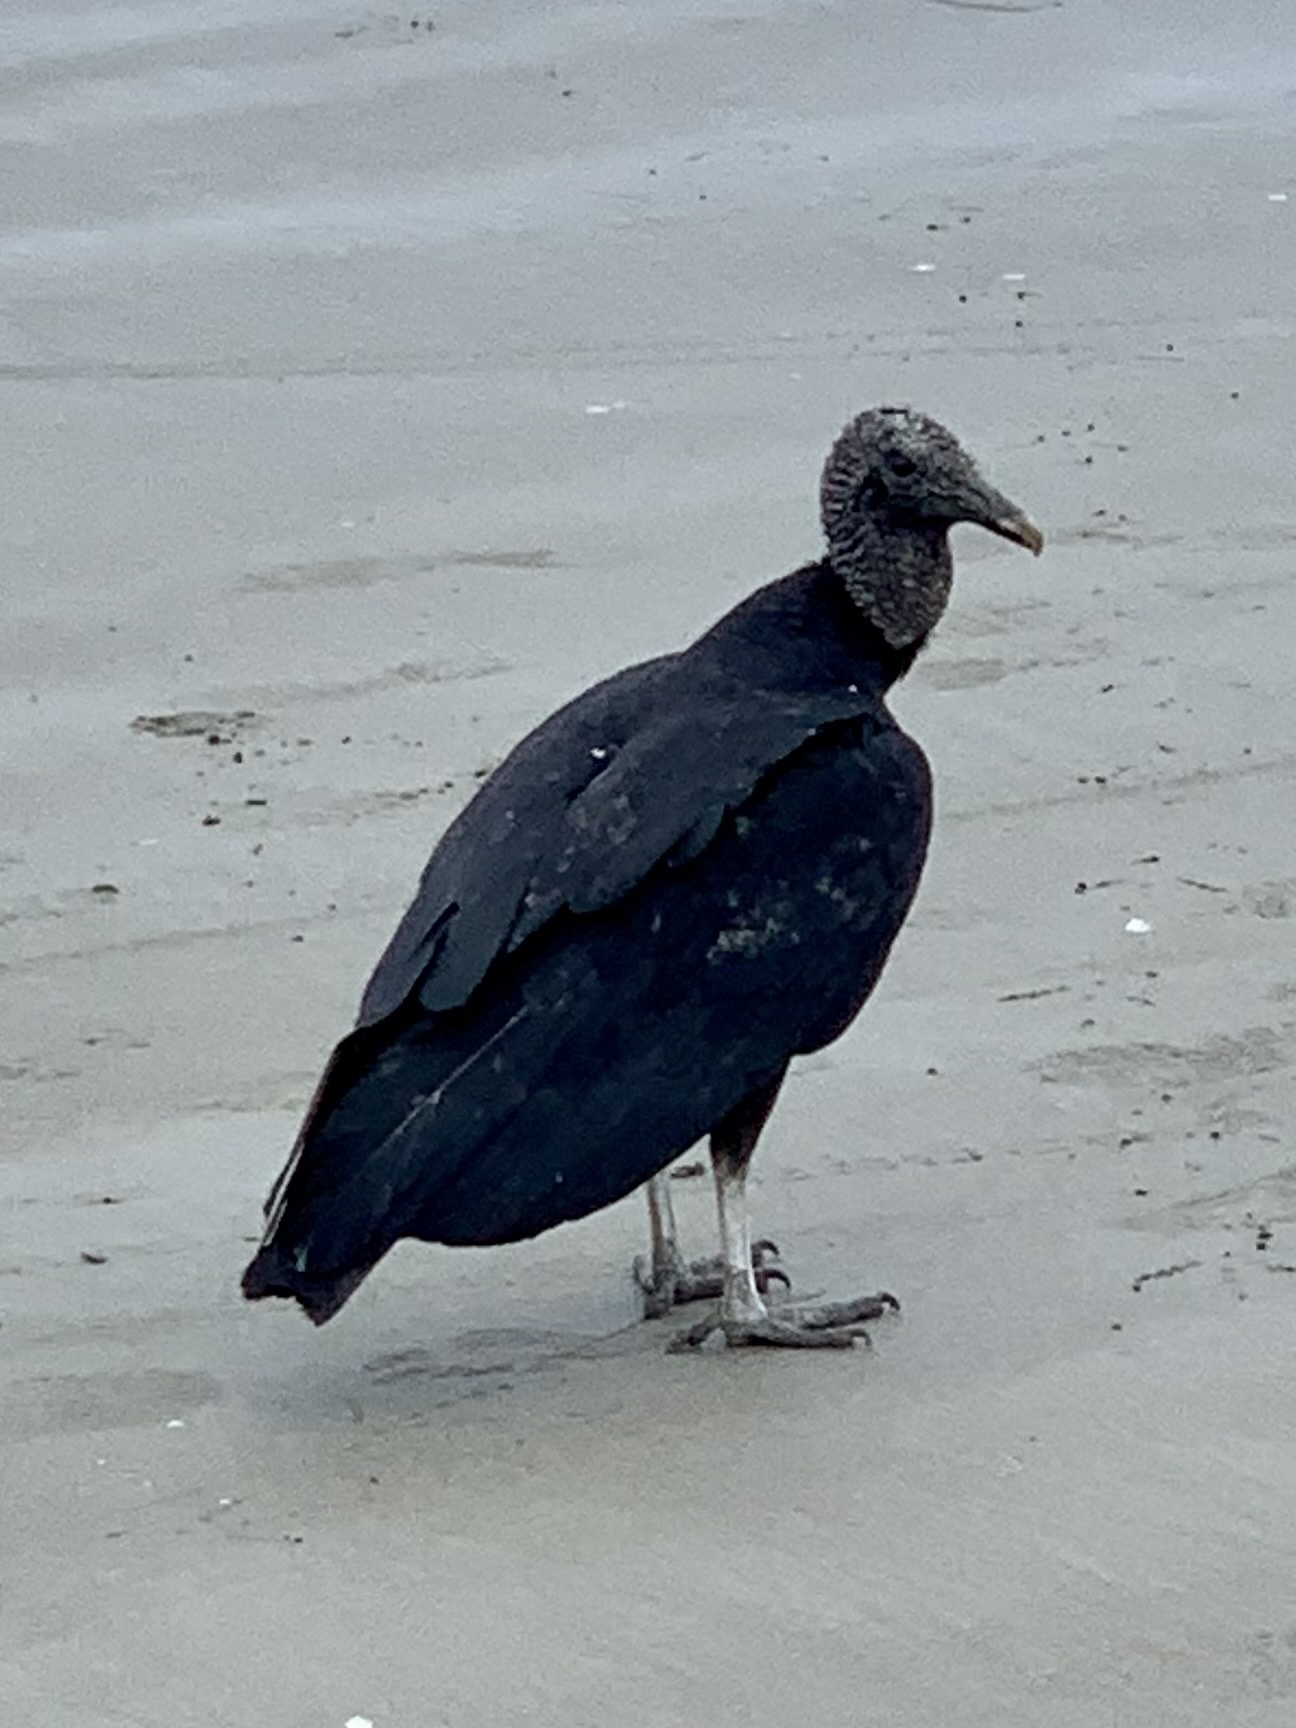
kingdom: Animalia
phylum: Chordata
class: Aves
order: Accipitriformes
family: Cathartidae
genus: Coragyps
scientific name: Coragyps atratus
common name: Black vulture
